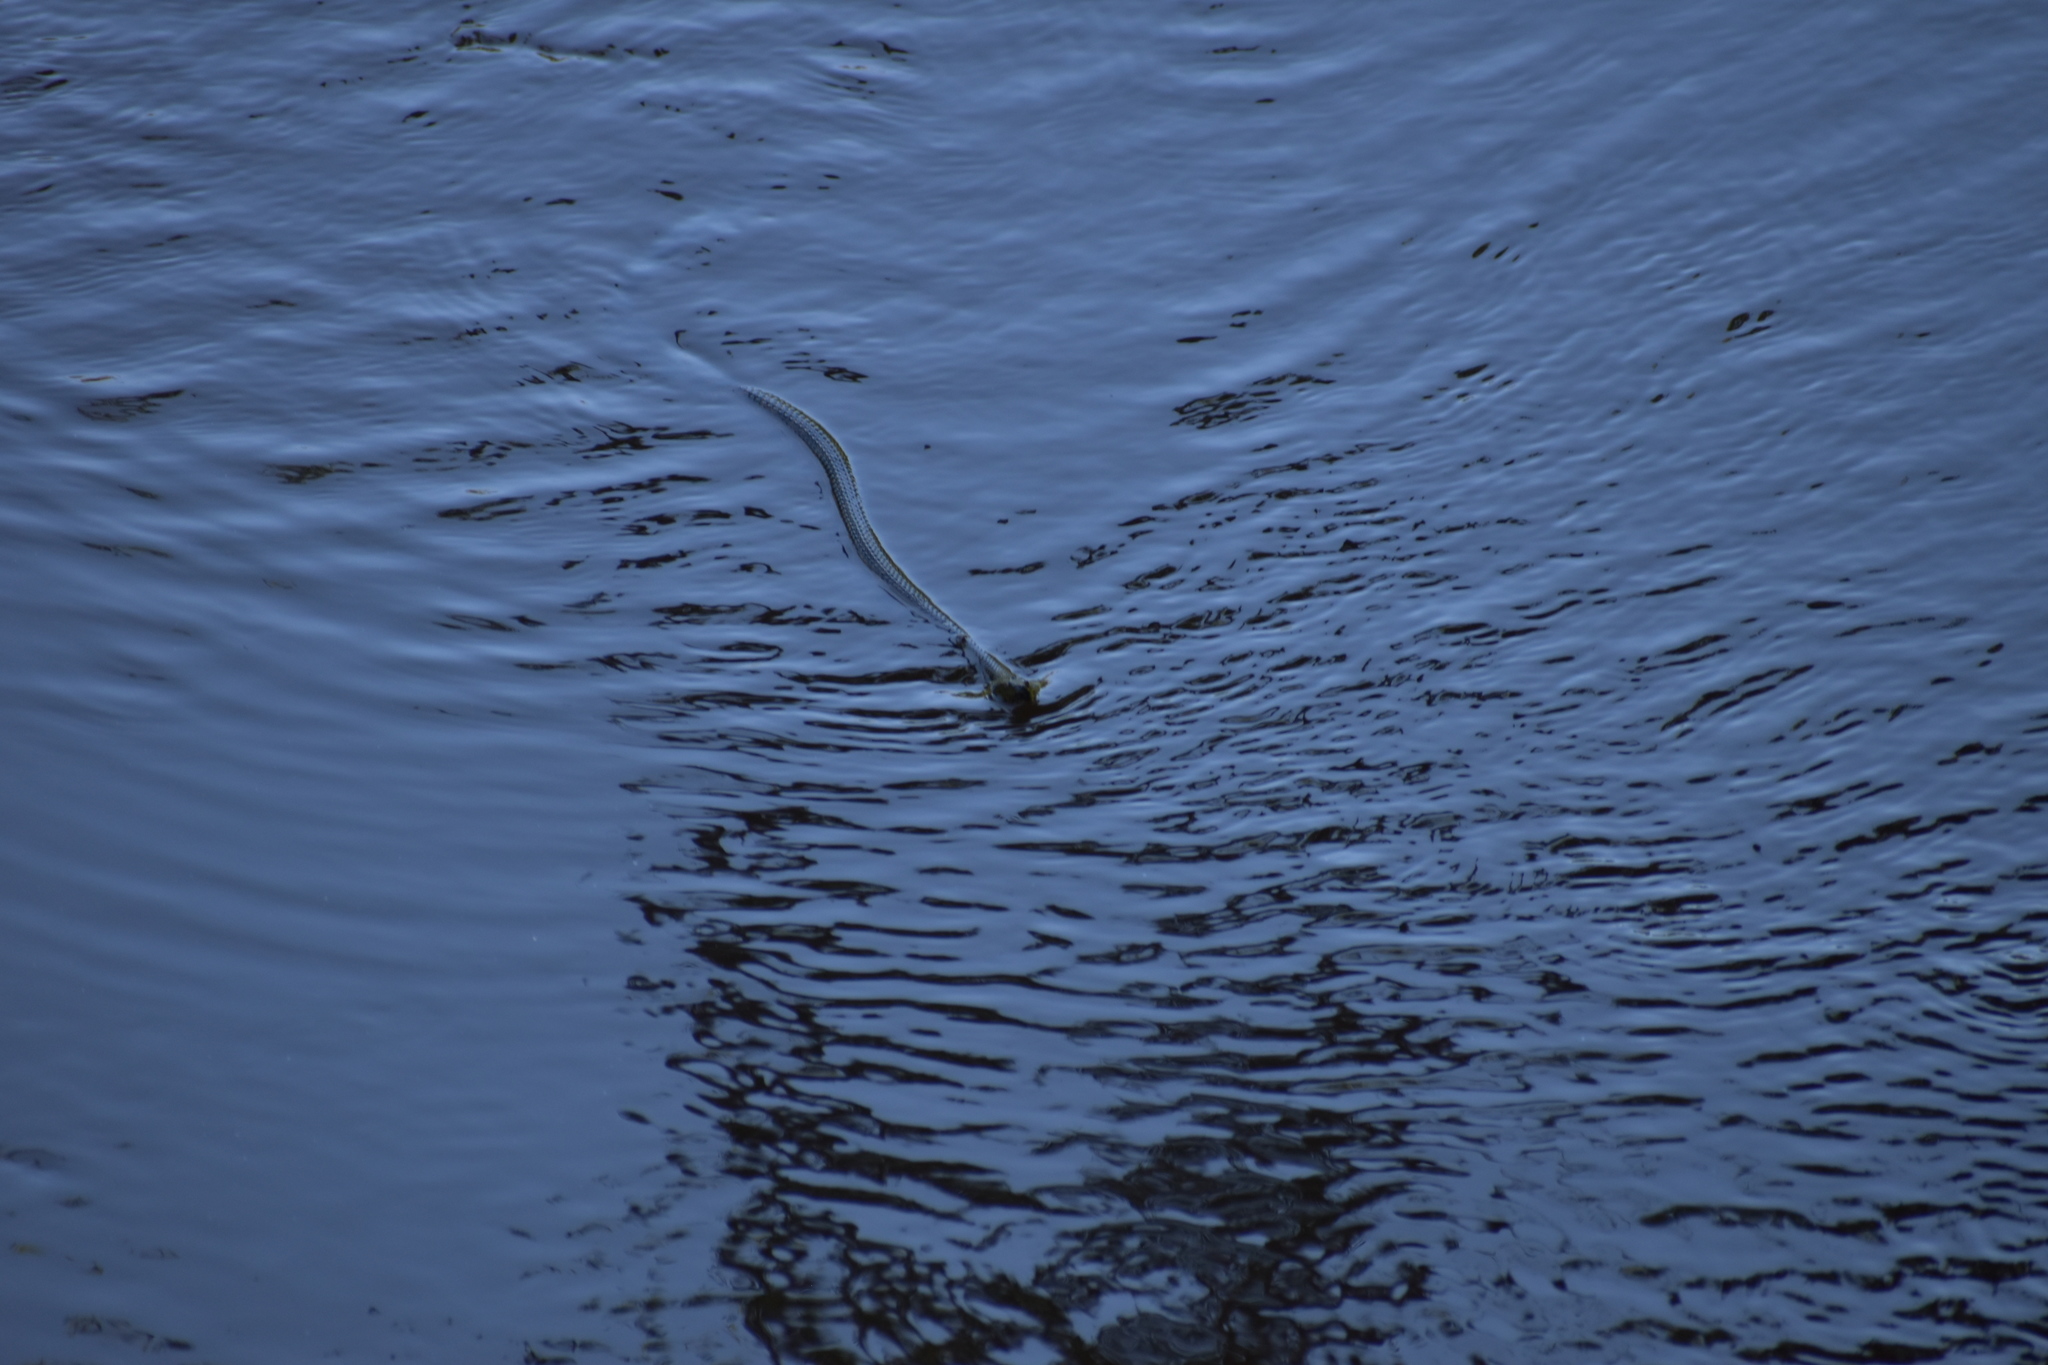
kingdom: Animalia
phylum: Chordata
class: Squamata
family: Colubridae
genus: Nerodia
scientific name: Nerodia taxispilota
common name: Brown water snake
